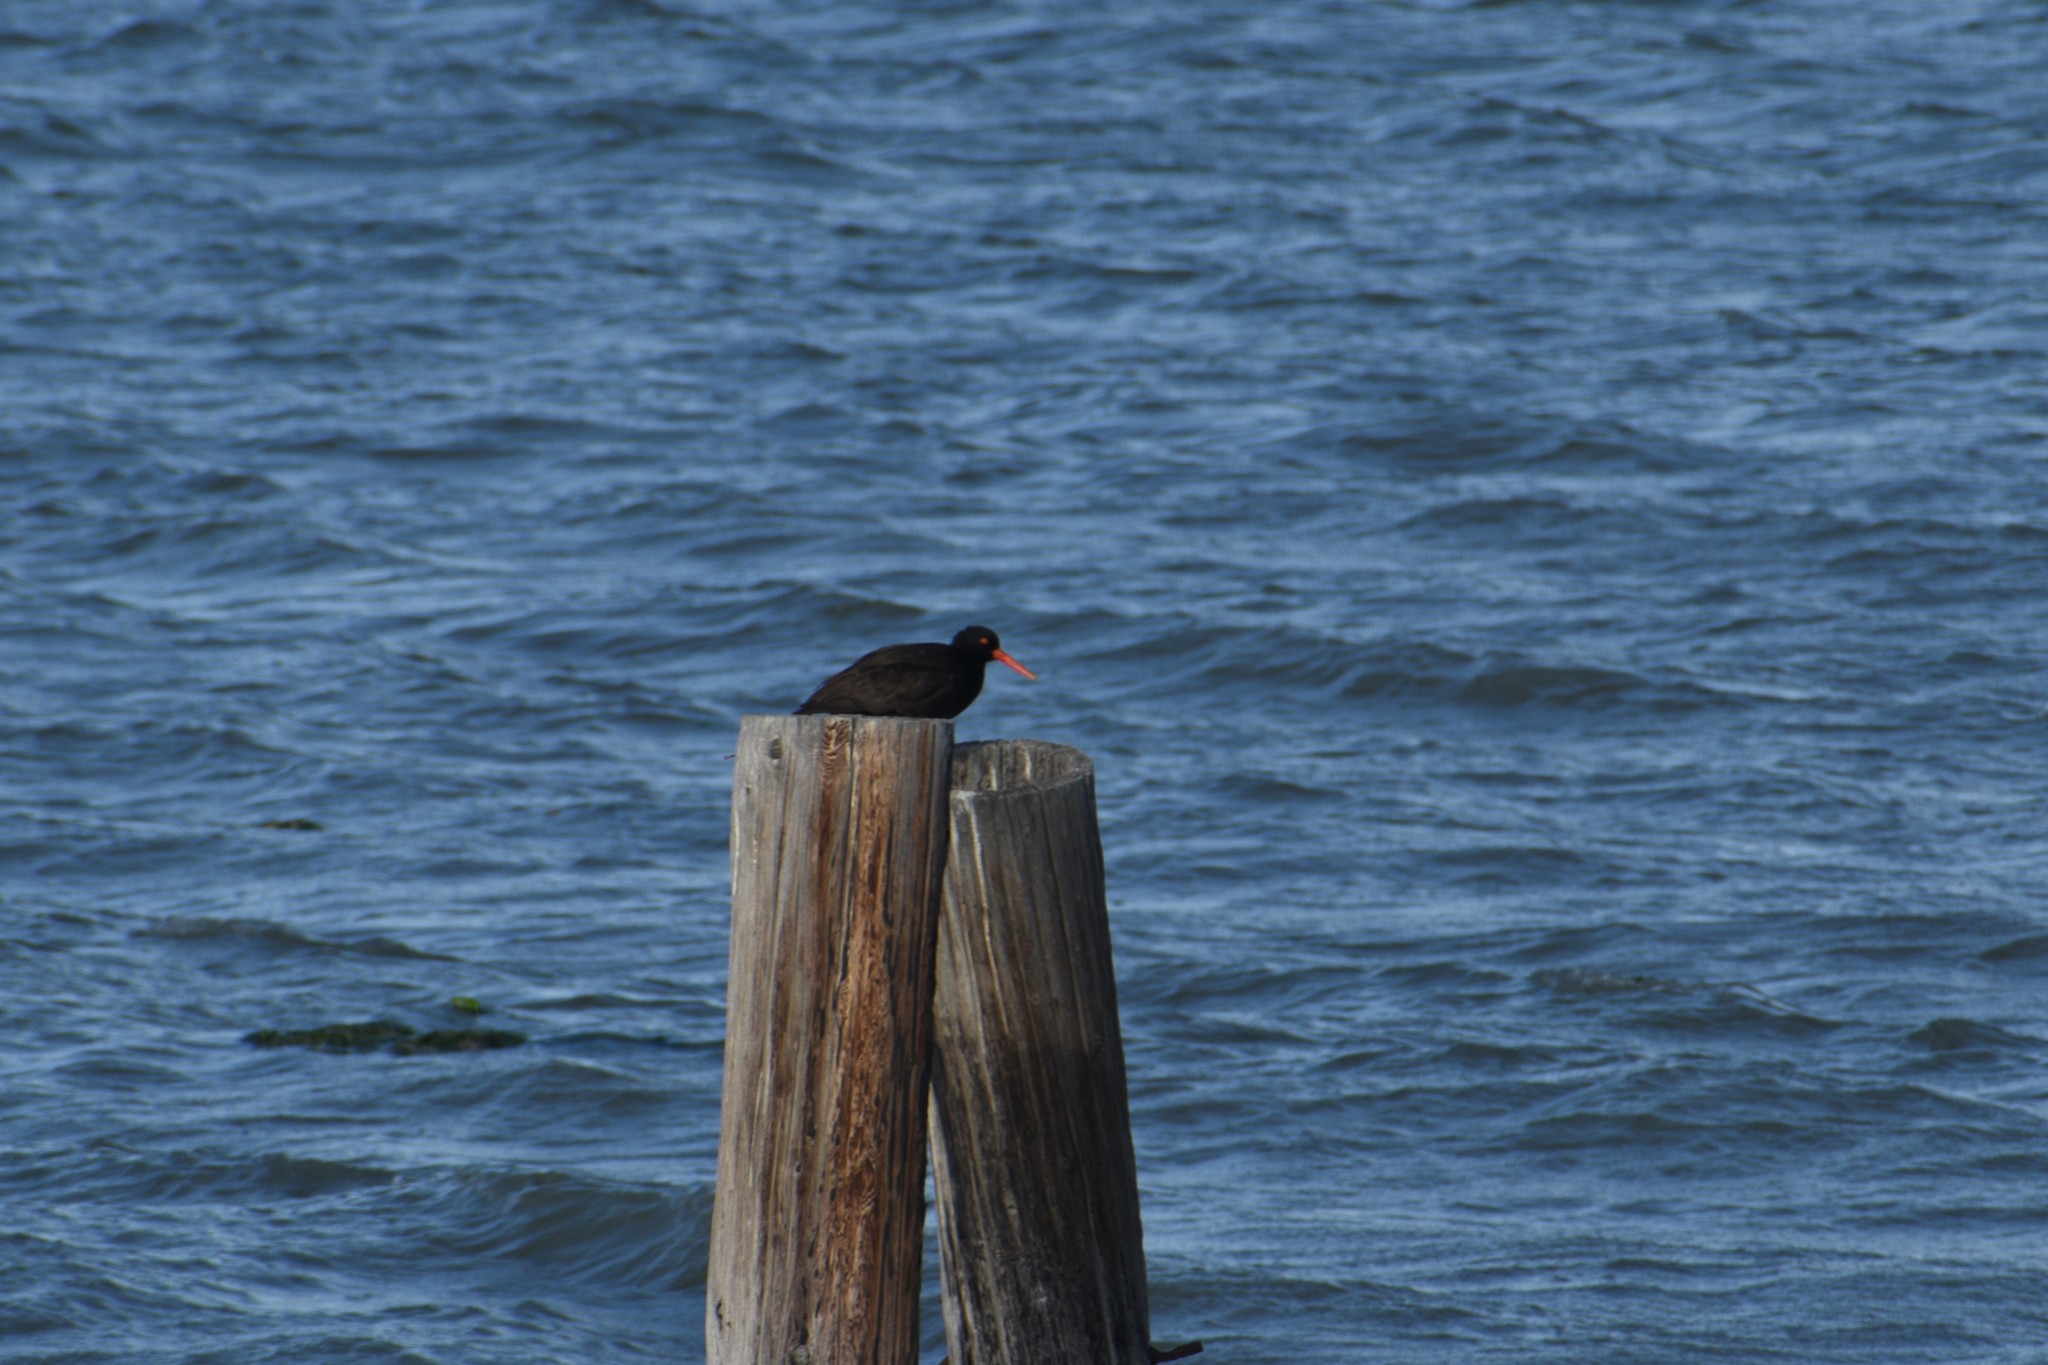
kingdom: Animalia
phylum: Chordata
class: Aves
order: Charadriiformes
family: Haematopodidae
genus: Haematopus
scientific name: Haematopus bachmani
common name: Black oystercatcher
